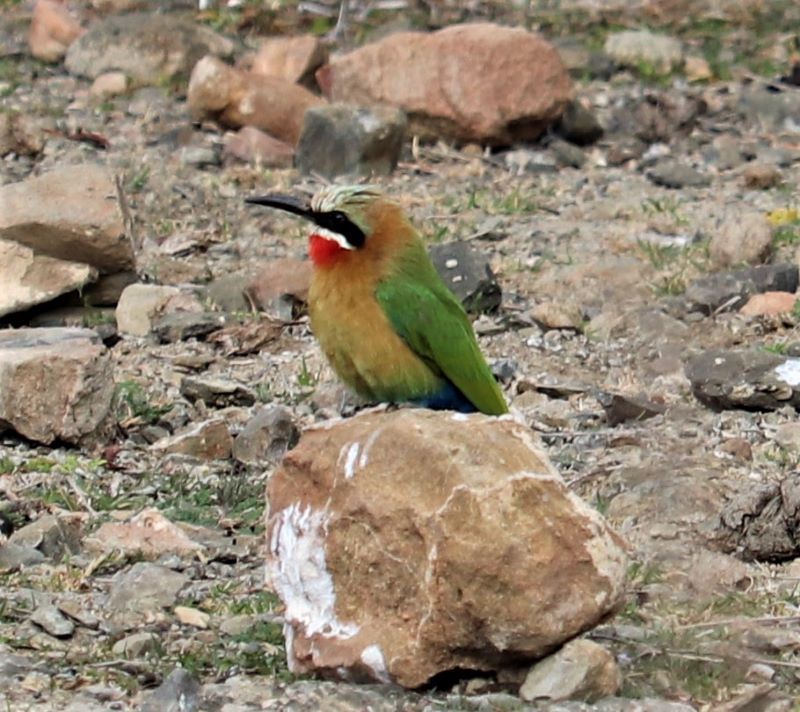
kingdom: Animalia
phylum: Chordata
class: Aves
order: Coraciiformes
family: Meropidae
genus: Merops
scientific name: Merops bullockoides
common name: White-fronted bee-eater
